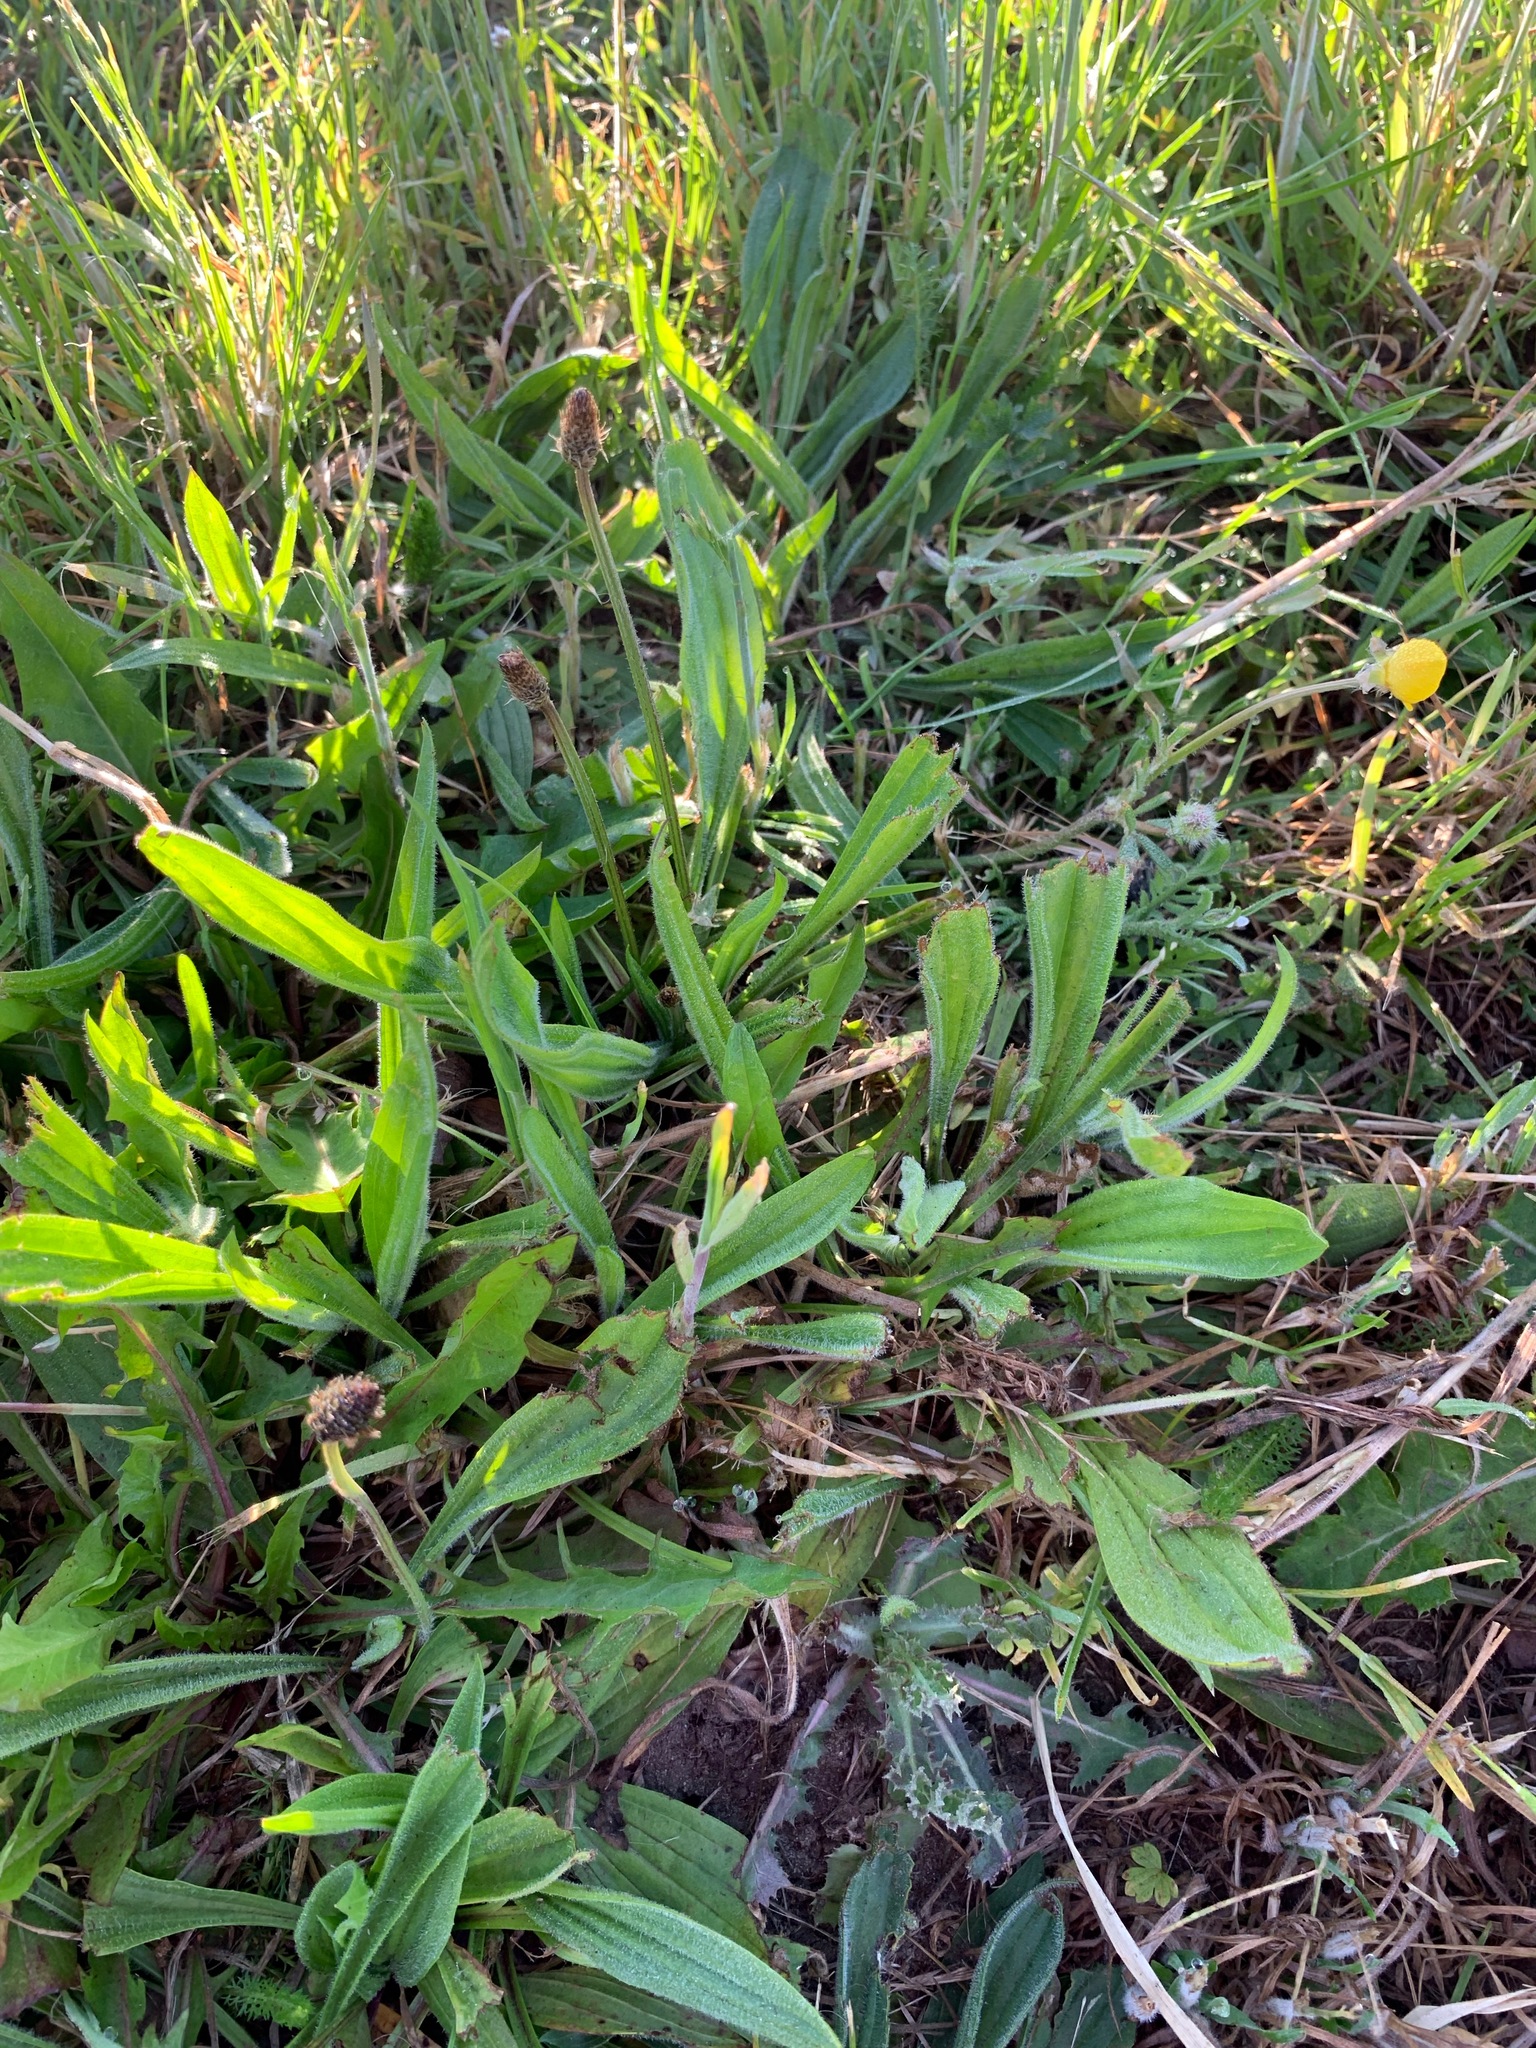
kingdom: Plantae
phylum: Tracheophyta
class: Magnoliopsida
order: Lamiales
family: Plantaginaceae
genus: Plantago
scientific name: Plantago lanceolata
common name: Ribwort plantain
